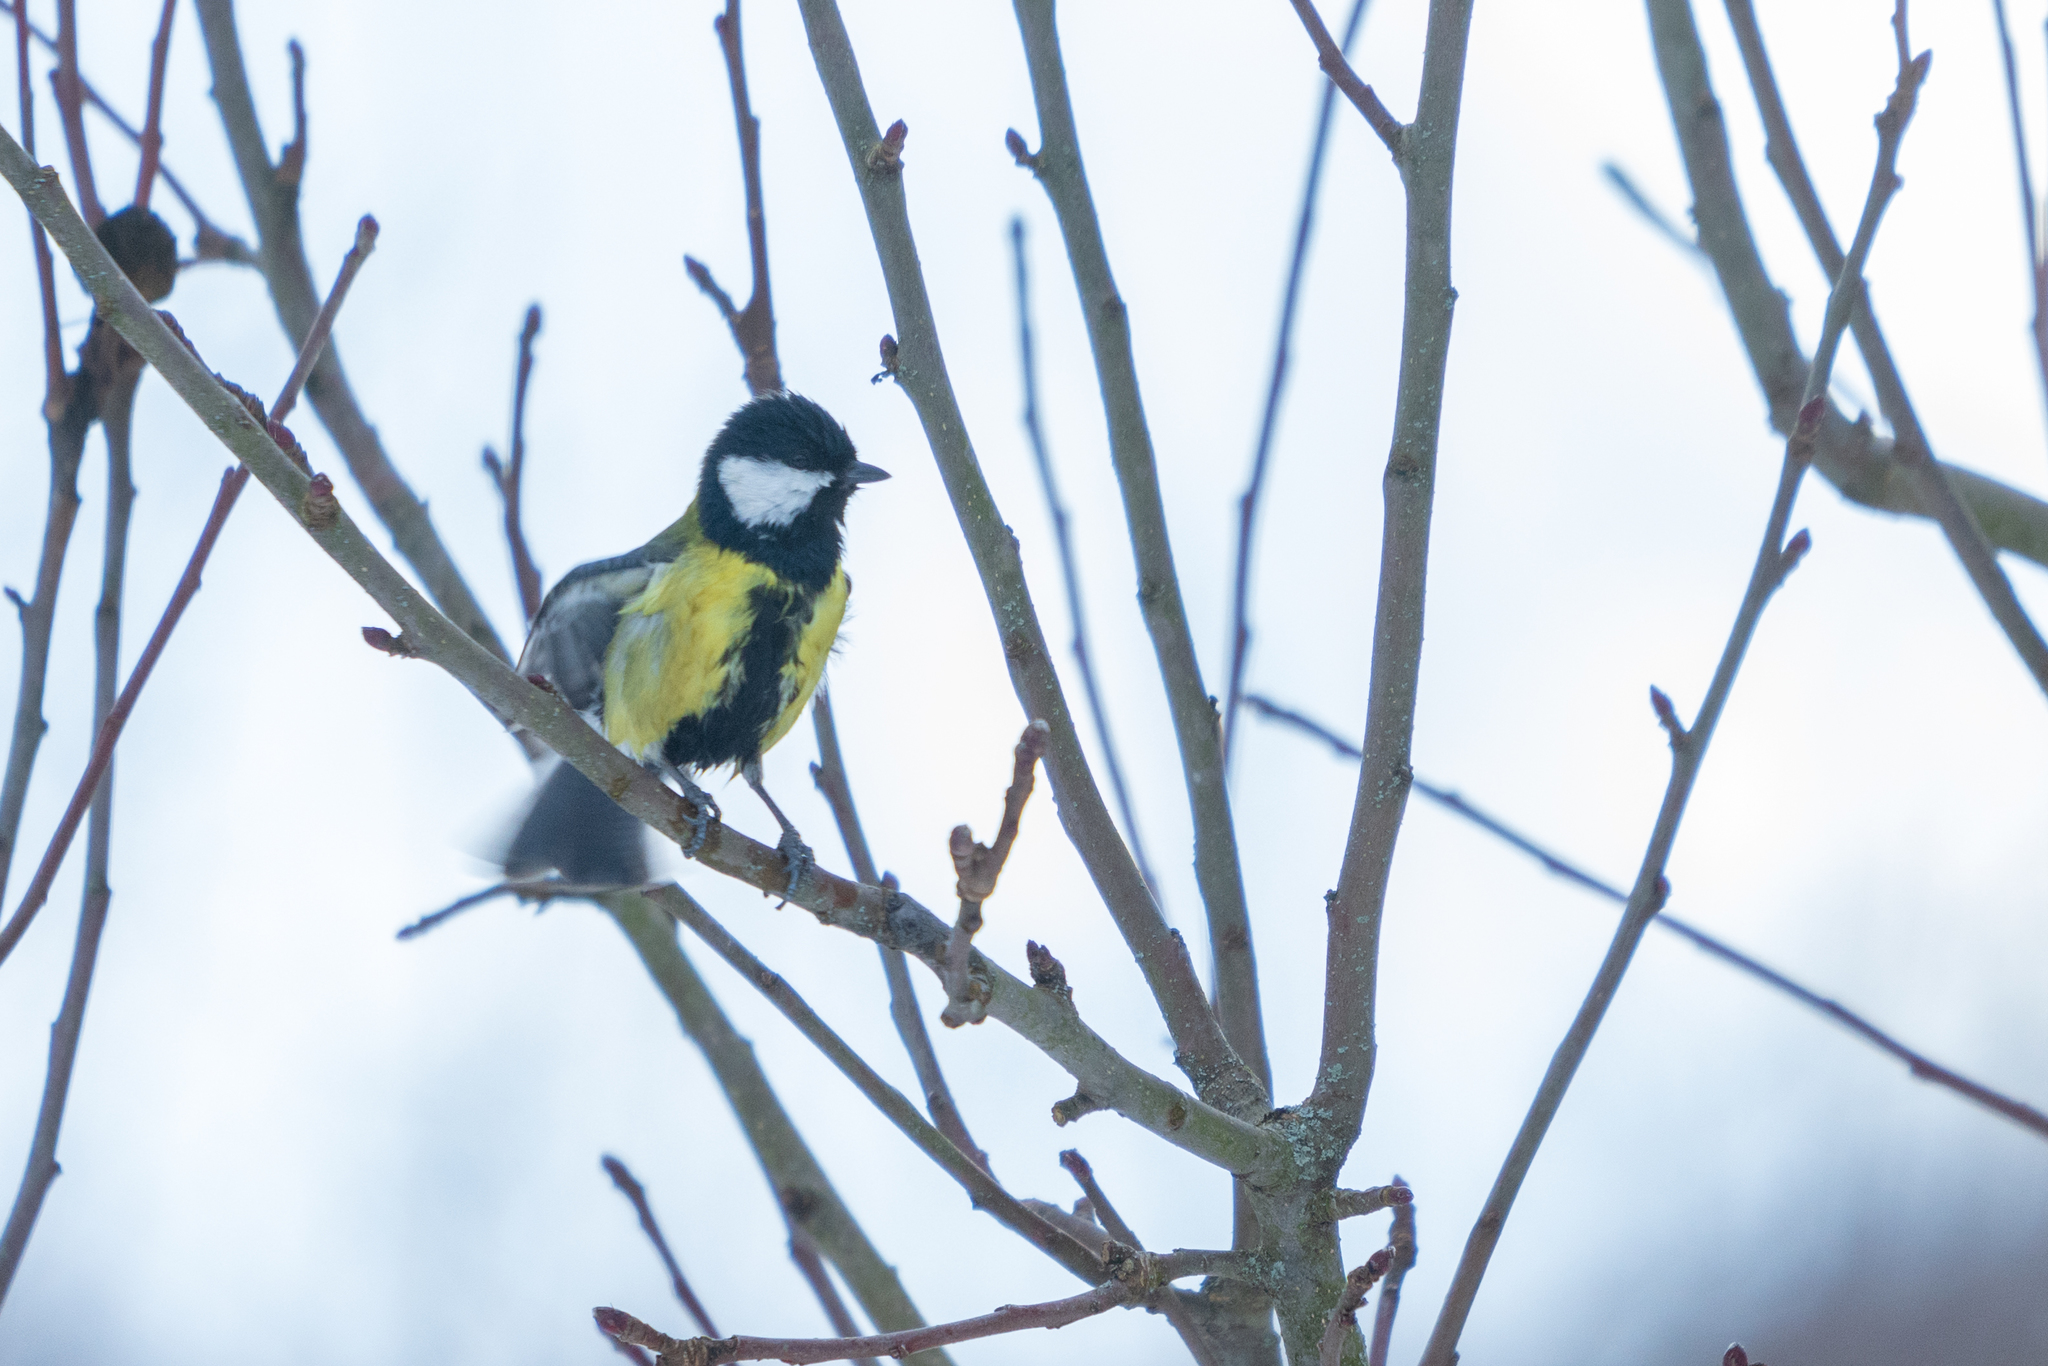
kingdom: Animalia
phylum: Chordata
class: Aves
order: Passeriformes
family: Paridae
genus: Parus
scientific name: Parus major
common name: Great tit
